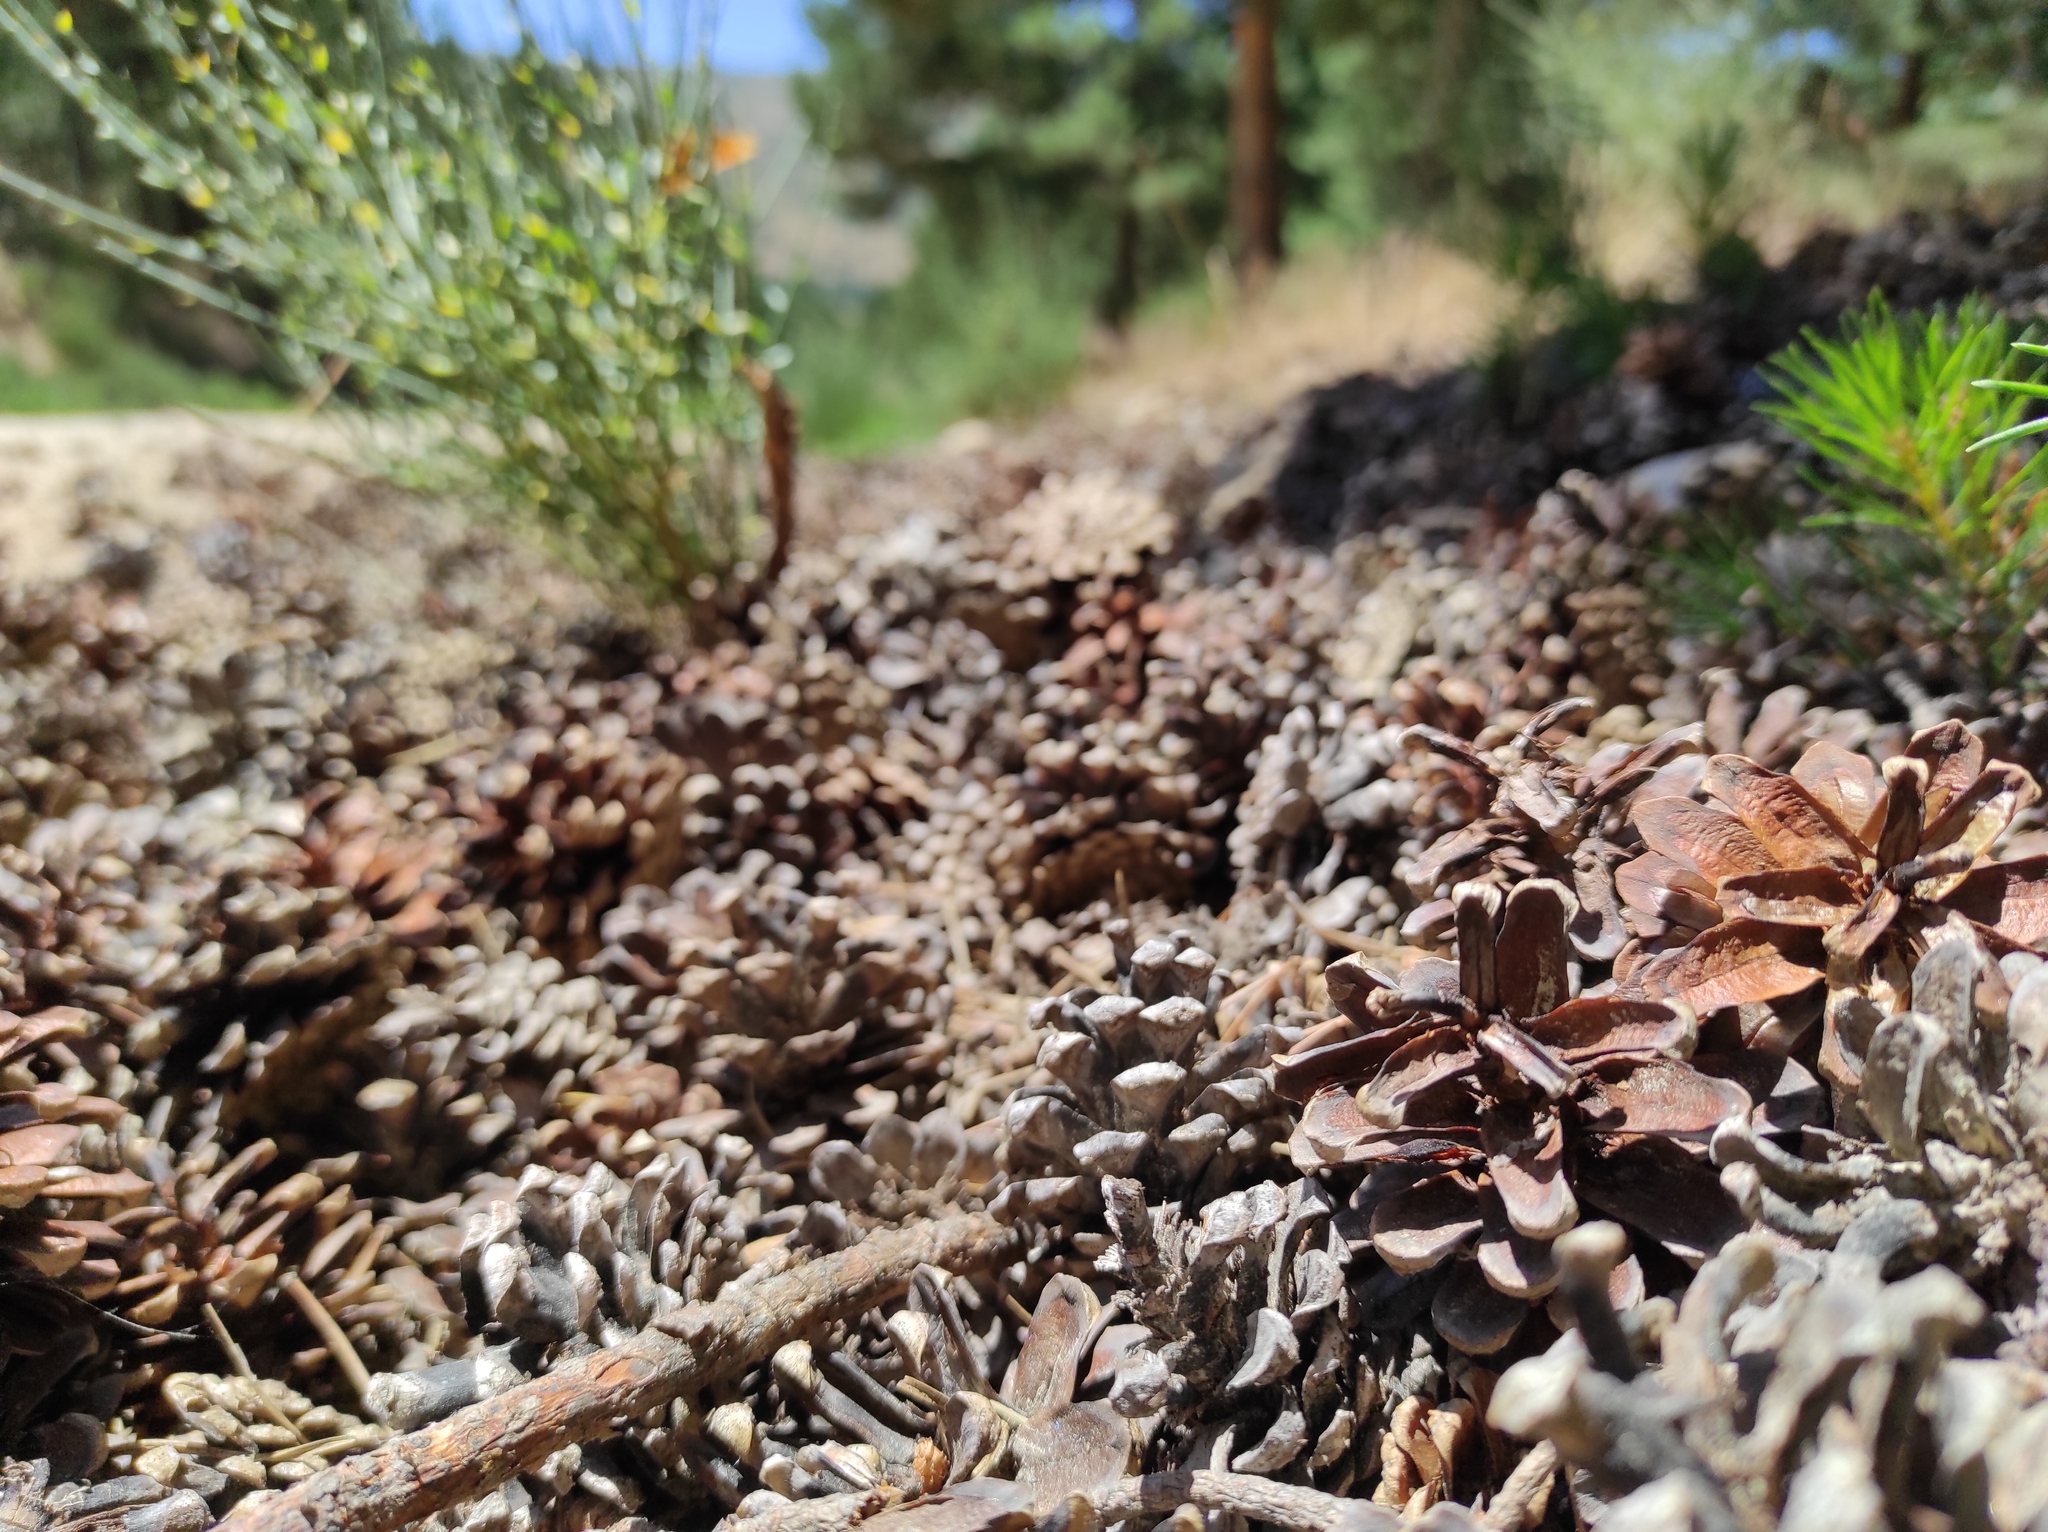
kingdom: Animalia
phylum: Arthropoda
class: Insecta
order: Odonata
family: Cordulegastridae
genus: Cordulegaster
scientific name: Cordulegaster boltonii
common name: Golden-ringed dragonfly
